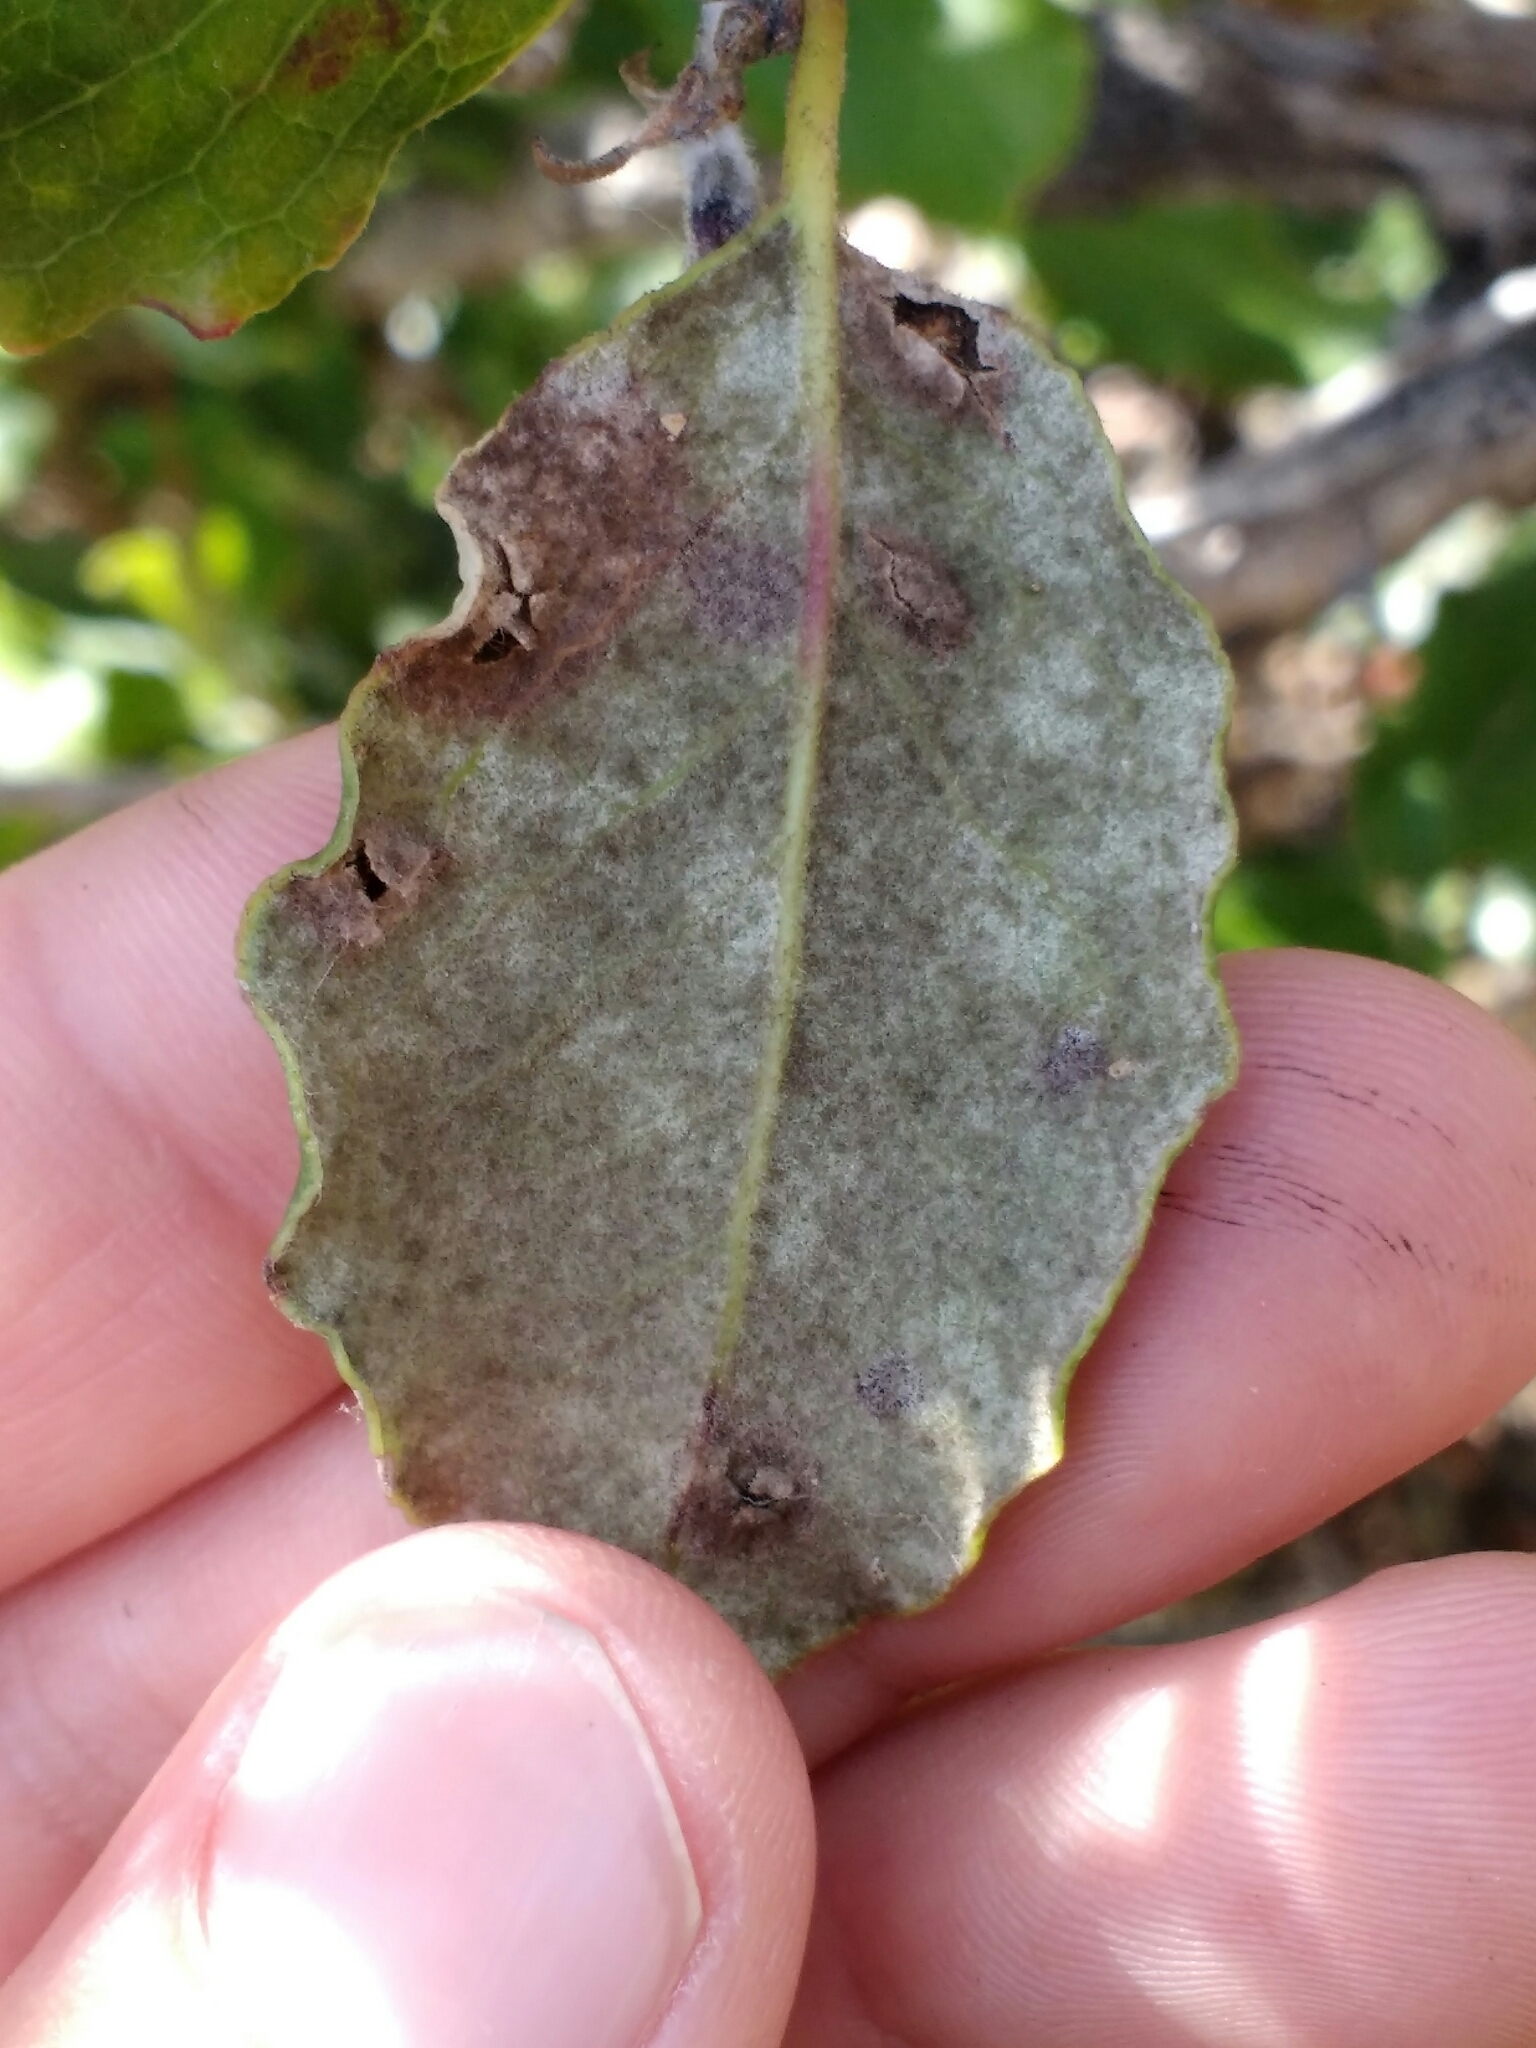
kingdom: Plantae
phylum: Tracheophyta
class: Magnoliopsida
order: Garryales
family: Garryaceae
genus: Garrya
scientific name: Garrya elliptica
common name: Silk-tassel
